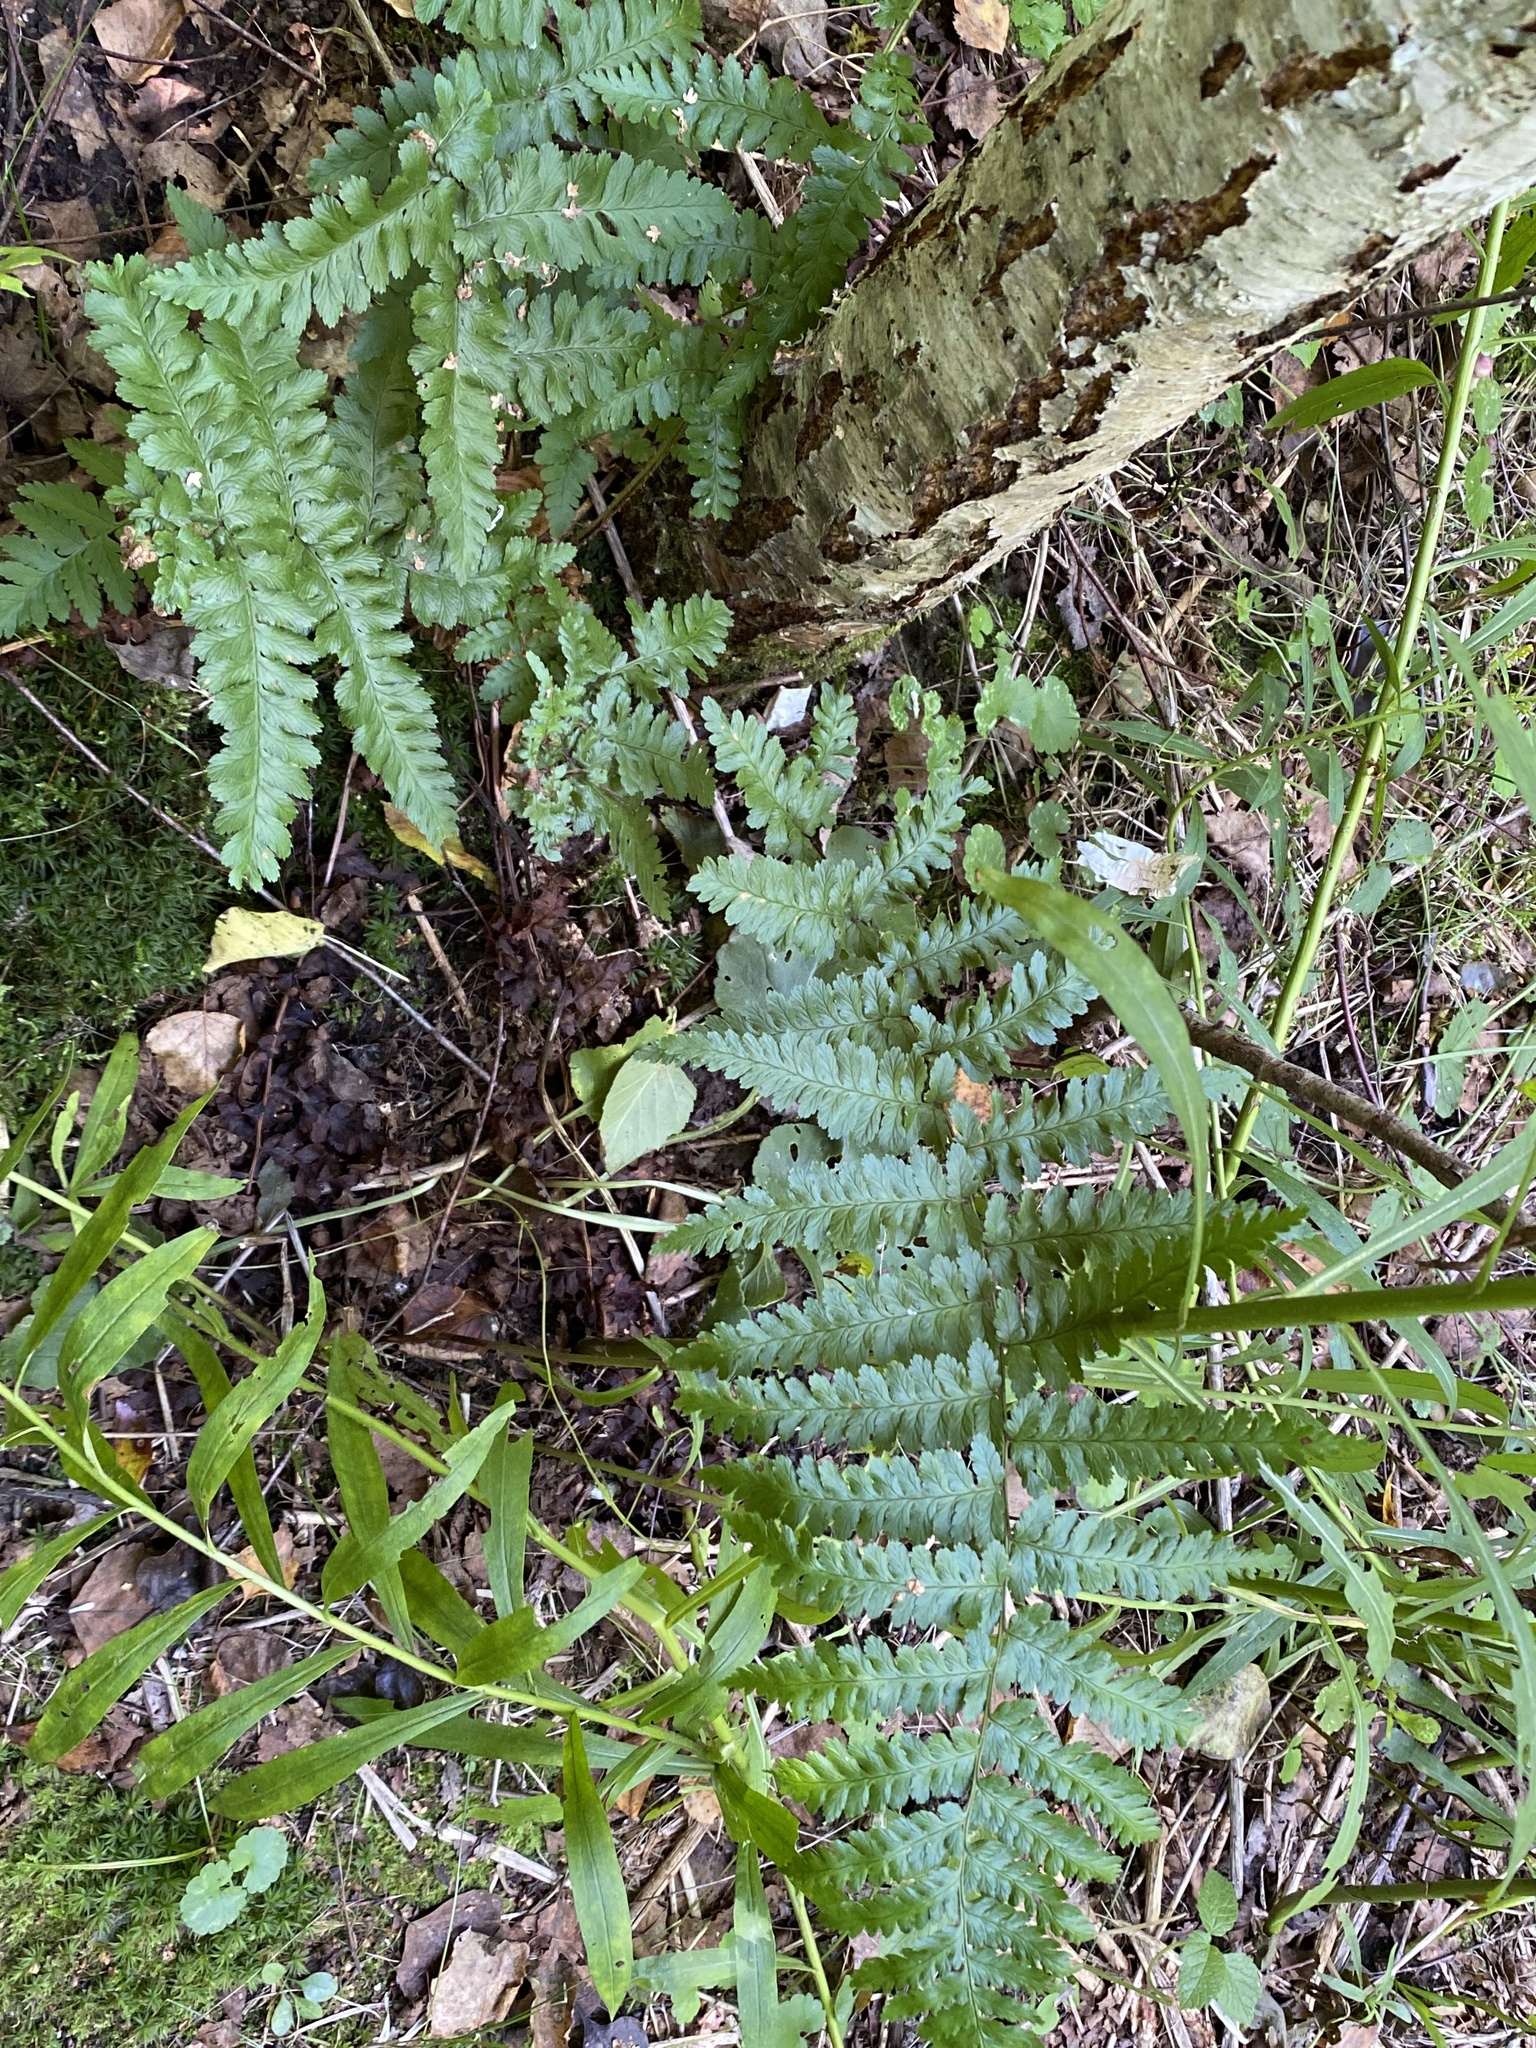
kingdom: Plantae
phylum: Tracheophyta
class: Polypodiopsida
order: Polypodiales
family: Dryopteridaceae
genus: Dryopteris
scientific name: Dryopteris filix-mas
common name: Male fern
